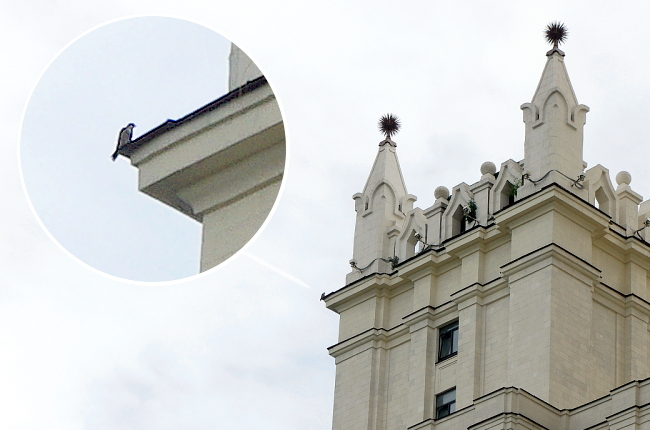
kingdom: Animalia
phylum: Chordata
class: Aves
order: Falconiformes
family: Falconidae
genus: Falco
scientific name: Falco peregrinus
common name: Peregrine falcon
